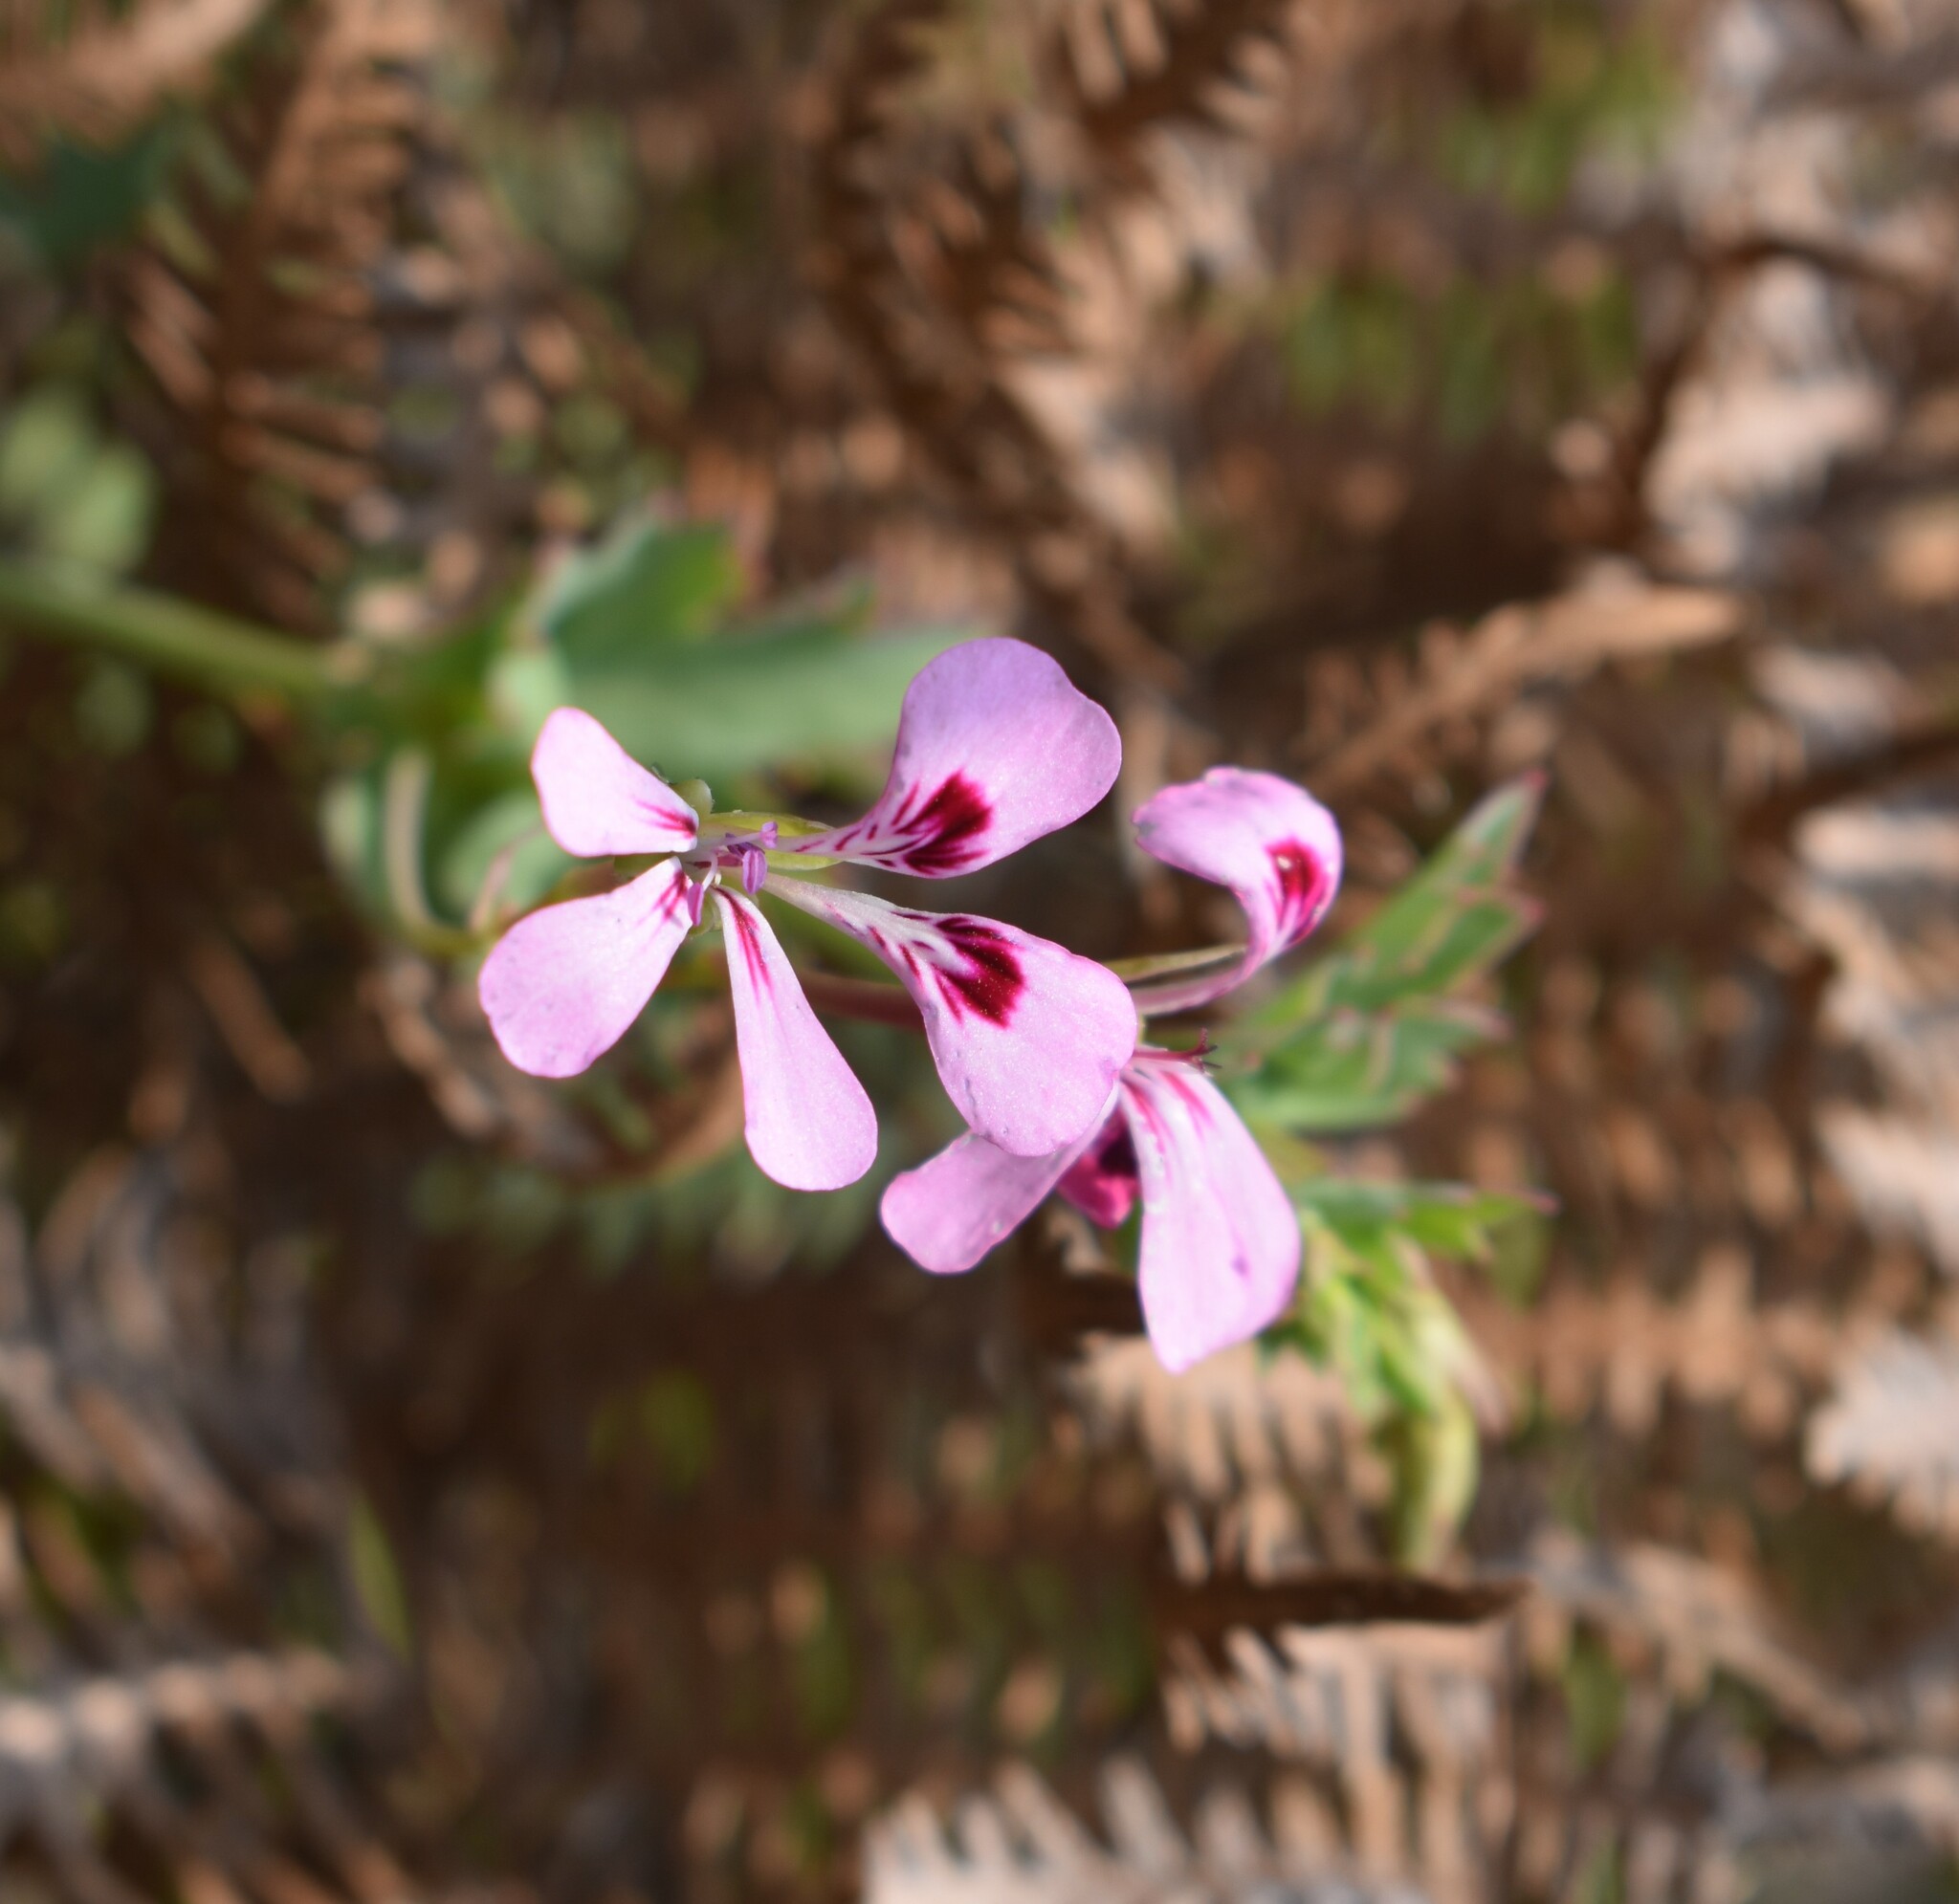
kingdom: Plantae
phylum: Tracheophyta
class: Magnoliopsida
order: Geraniales
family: Geraniaceae
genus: Pelargonium
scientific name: Pelargonium patulum
